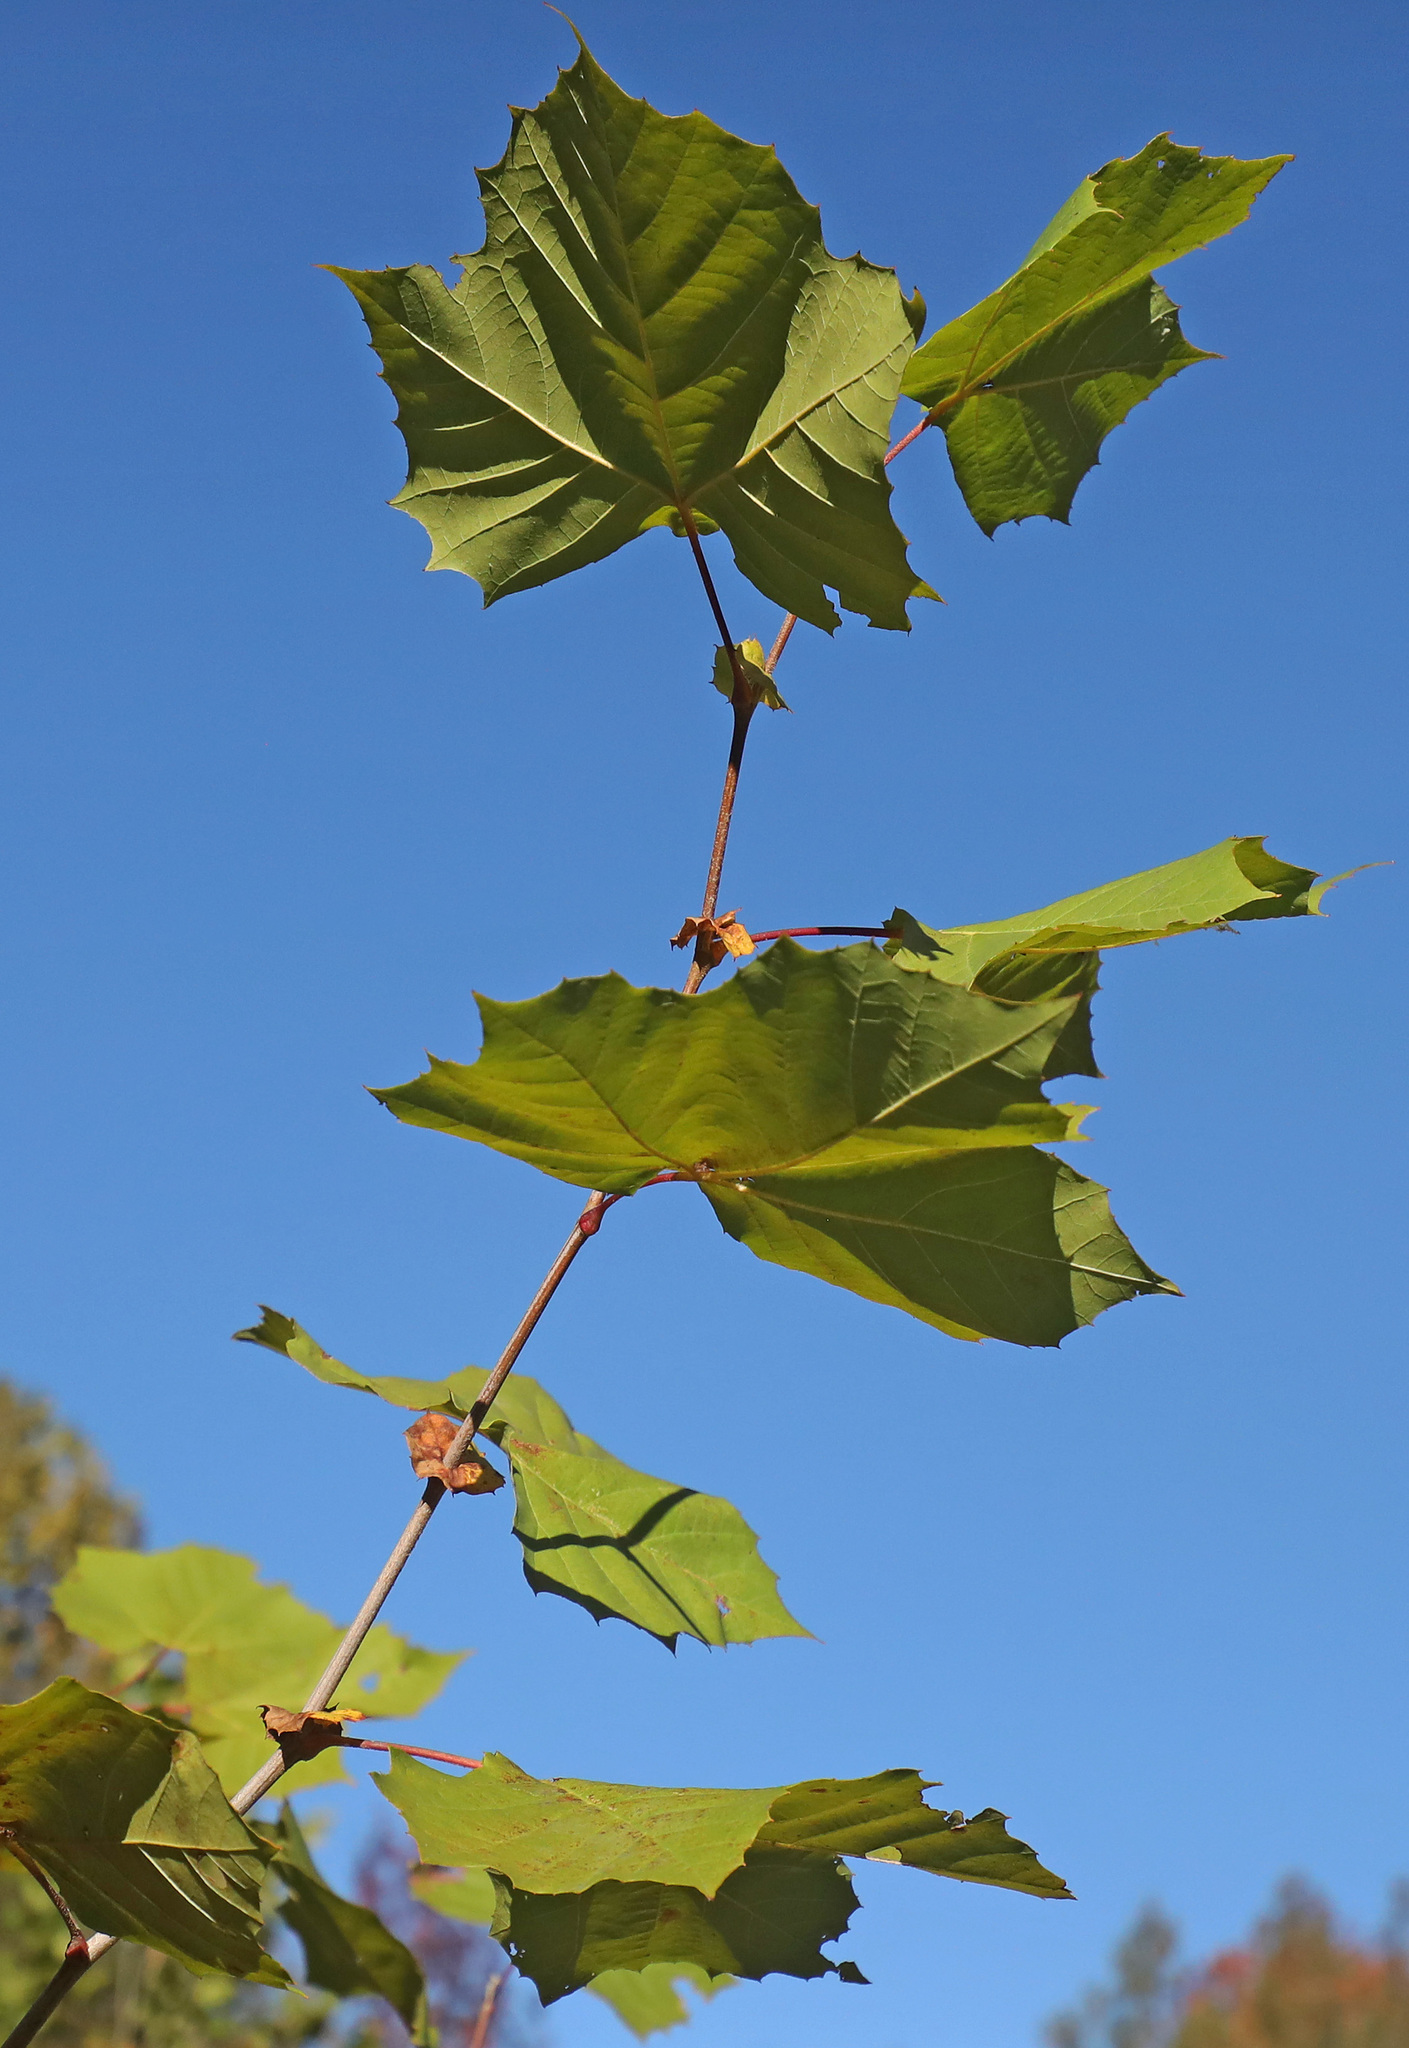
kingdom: Plantae
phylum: Tracheophyta
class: Magnoliopsida
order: Proteales
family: Platanaceae
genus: Platanus
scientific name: Platanus occidentalis
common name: American sycamore
